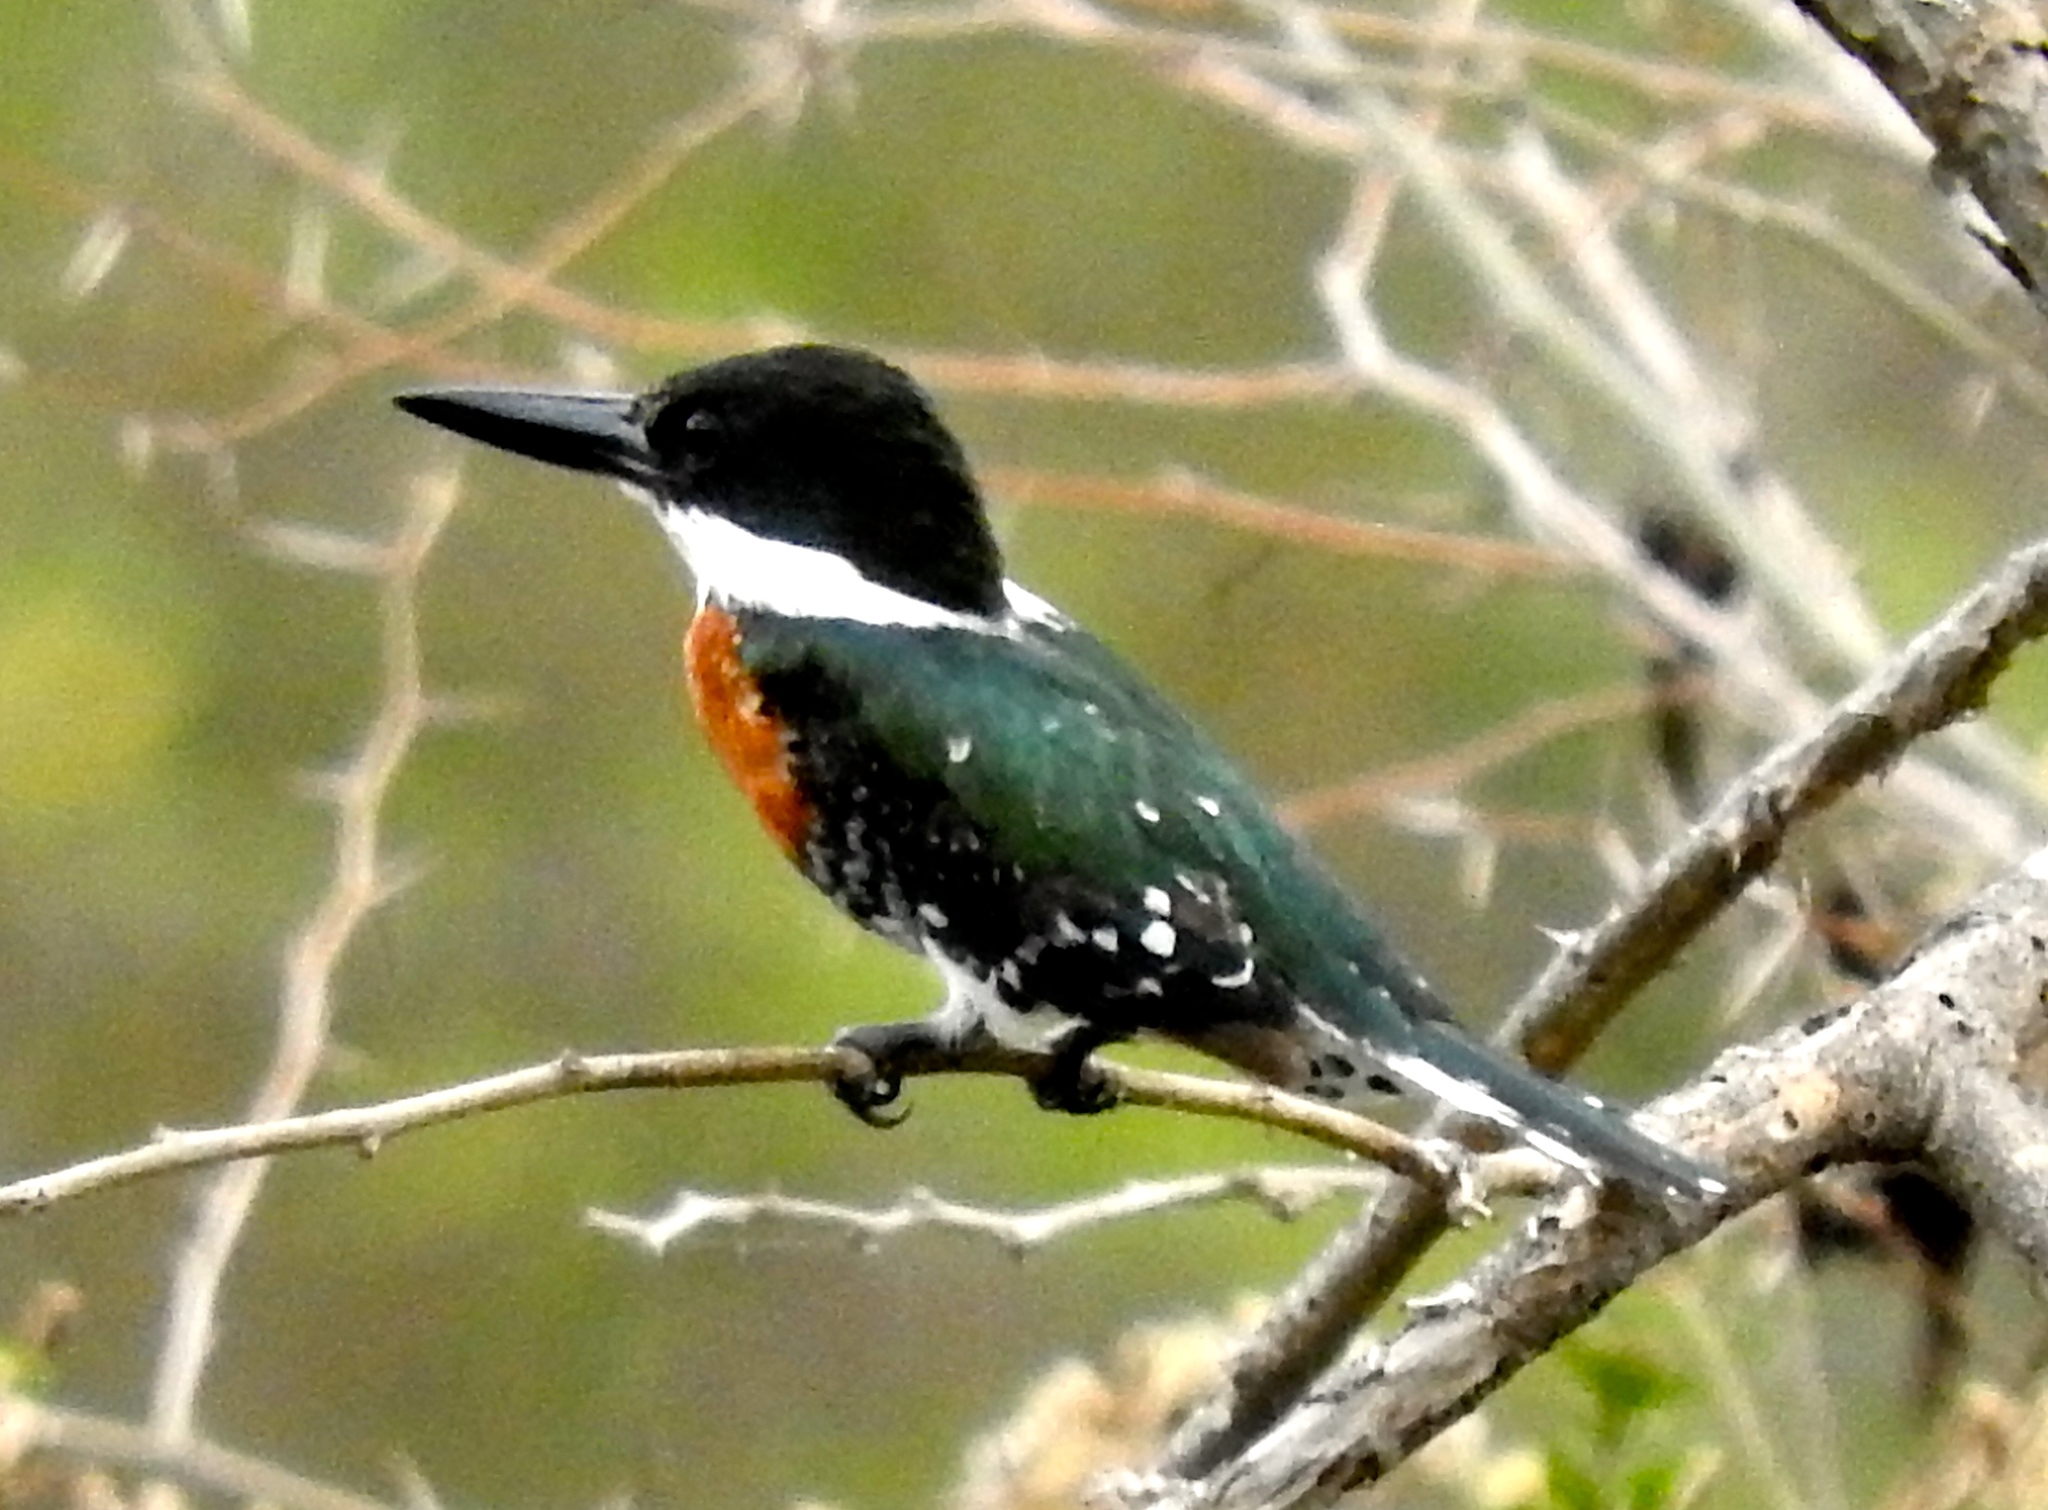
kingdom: Animalia
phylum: Chordata
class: Aves
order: Coraciiformes
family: Alcedinidae
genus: Chloroceryle
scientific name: Chloroceryle americana
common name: Green kingfisher
